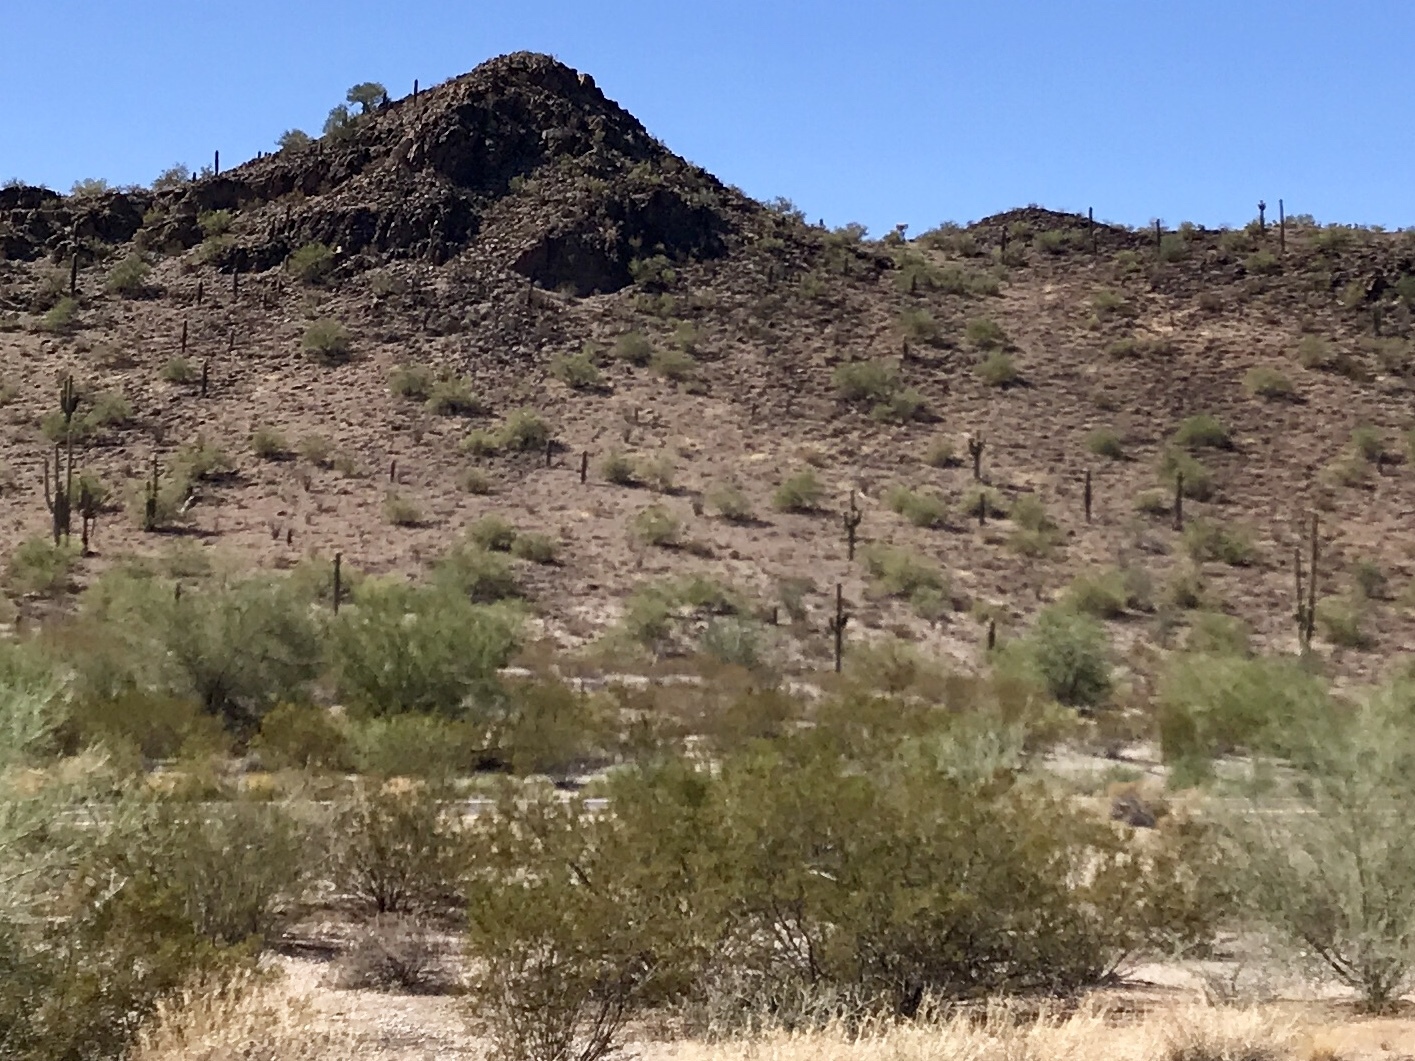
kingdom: Plantae
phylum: Tracheophyta
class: Magnoliopsida
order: Zygophyllales
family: Zygophyllaceae
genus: Larrea
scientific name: Larrea tridentata
